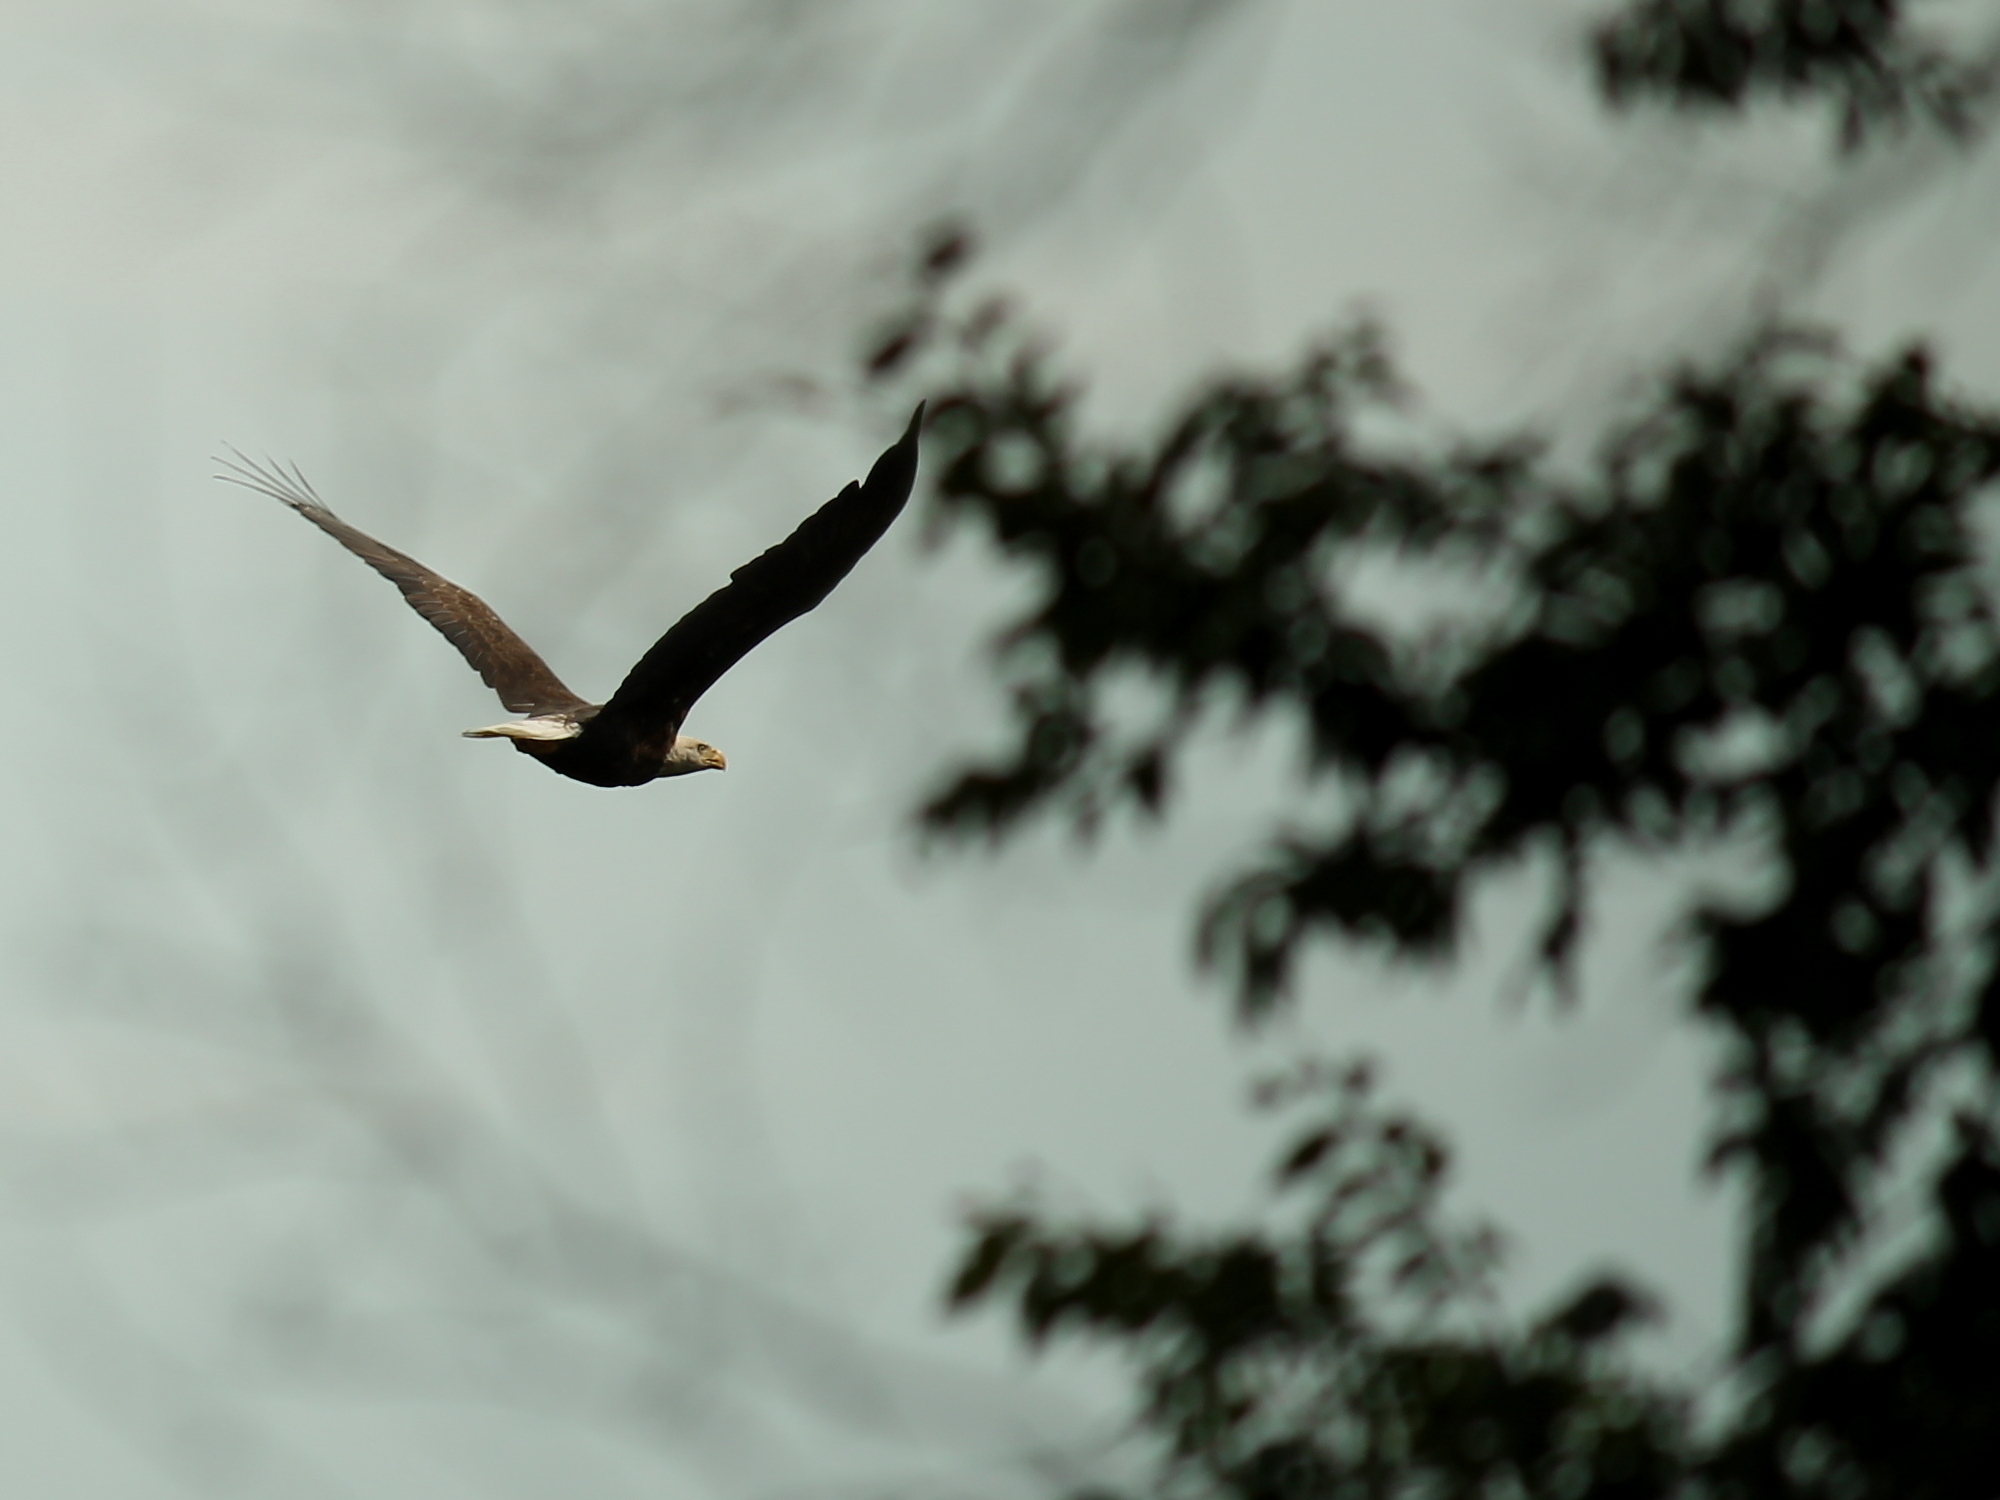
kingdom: Animalia
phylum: Chordata
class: Aves
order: Accipitriformes
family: Accipitridae
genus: Haliaeetus
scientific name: Haliaeetus leucocephalus
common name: Bald eagle
